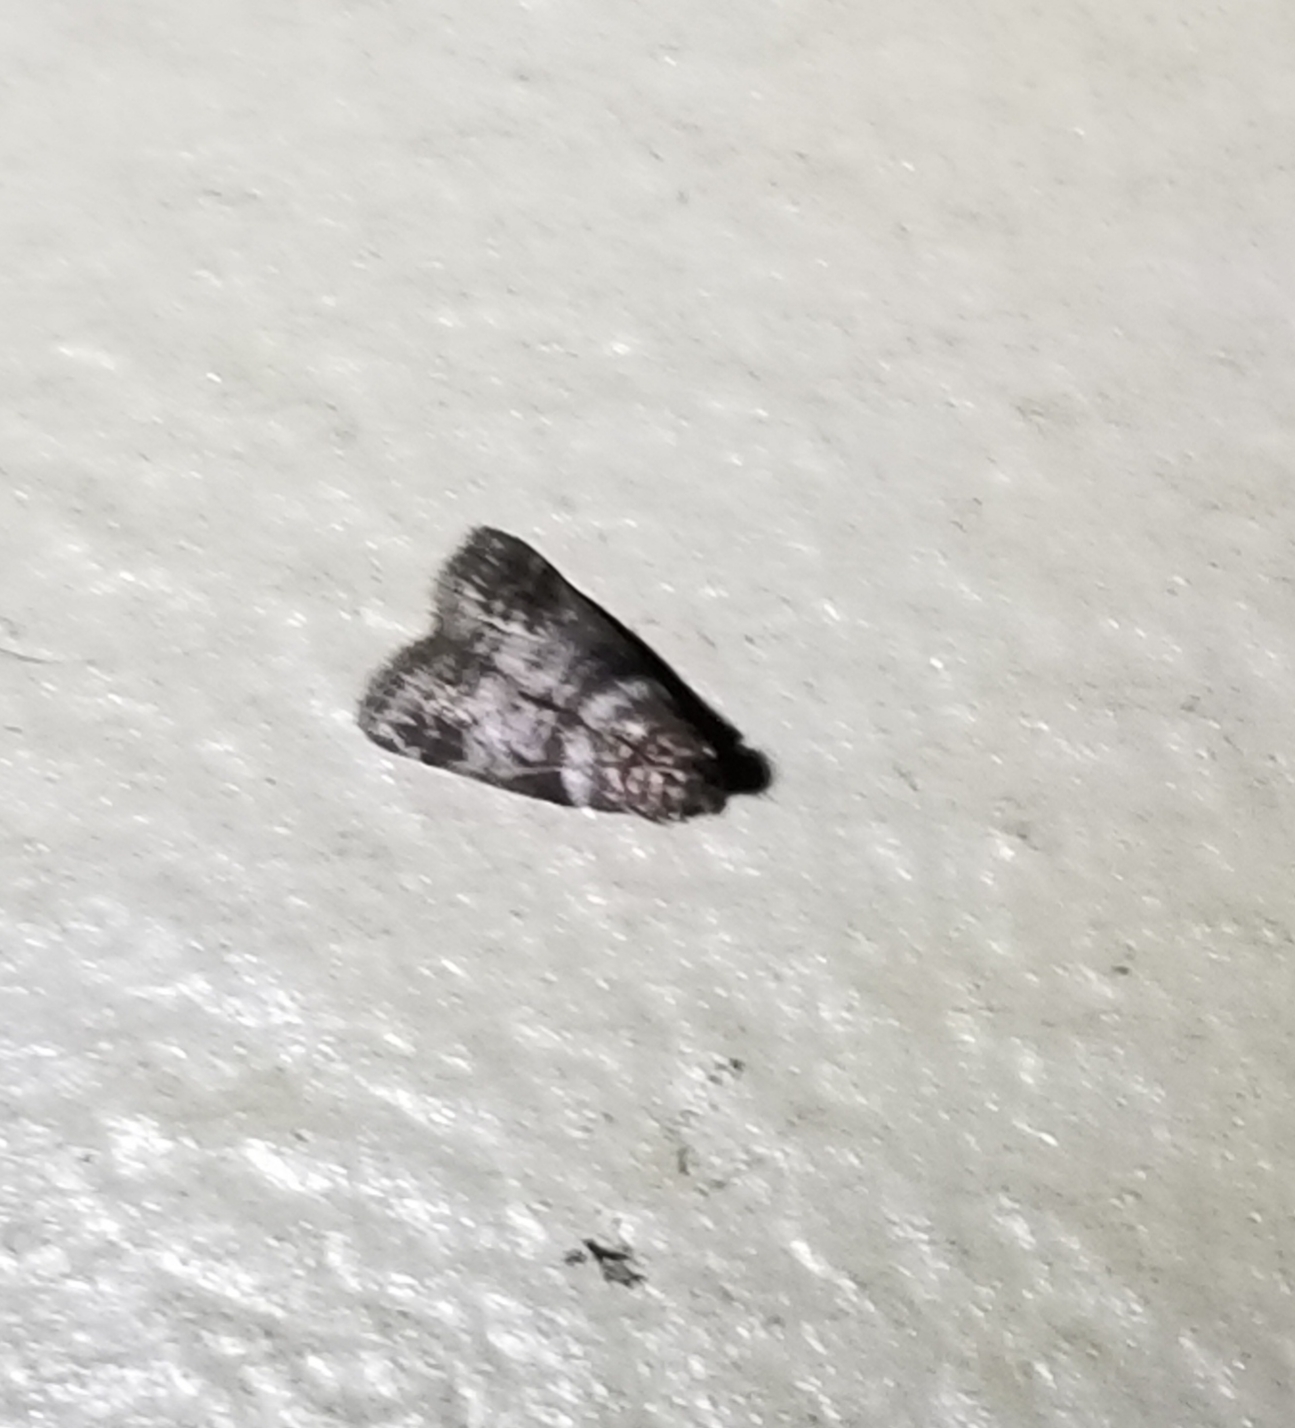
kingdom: Animalia
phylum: Arthropoda
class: Insecta
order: Lepidoptera
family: Pyralidae
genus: Sciota
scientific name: Sciota uvinella
